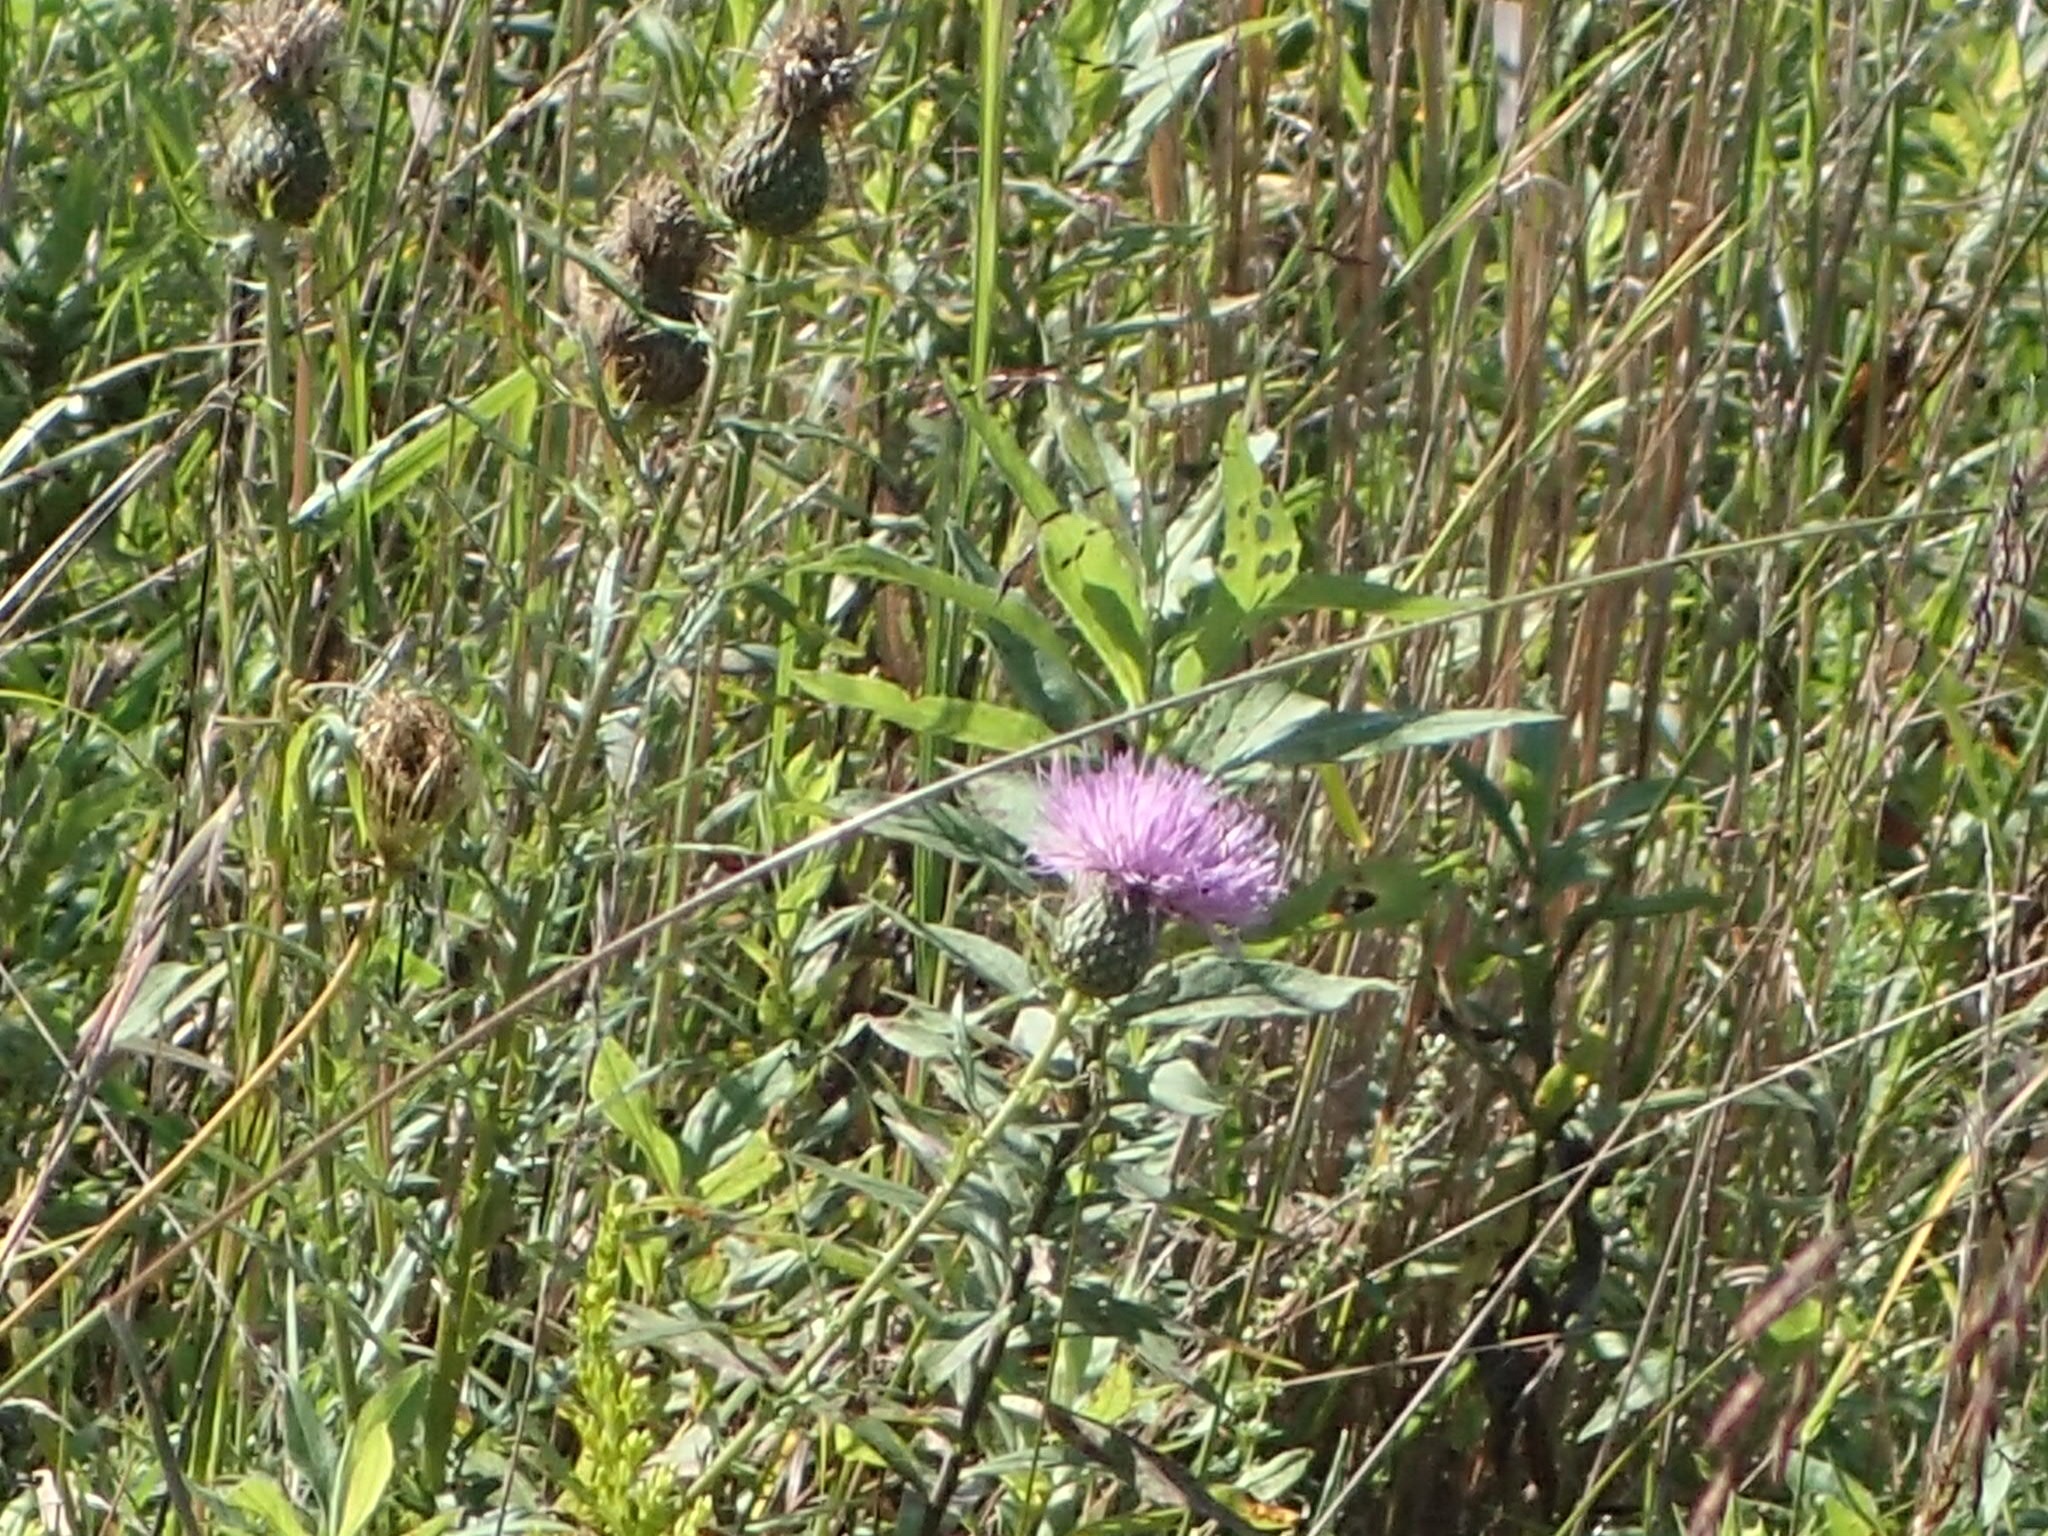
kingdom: Plantae
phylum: Tracheophyta
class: Magnoliopsida
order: Asterales
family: Asteraceae
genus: Cirsium
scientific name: Cirsium discolor
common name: Field thistle
